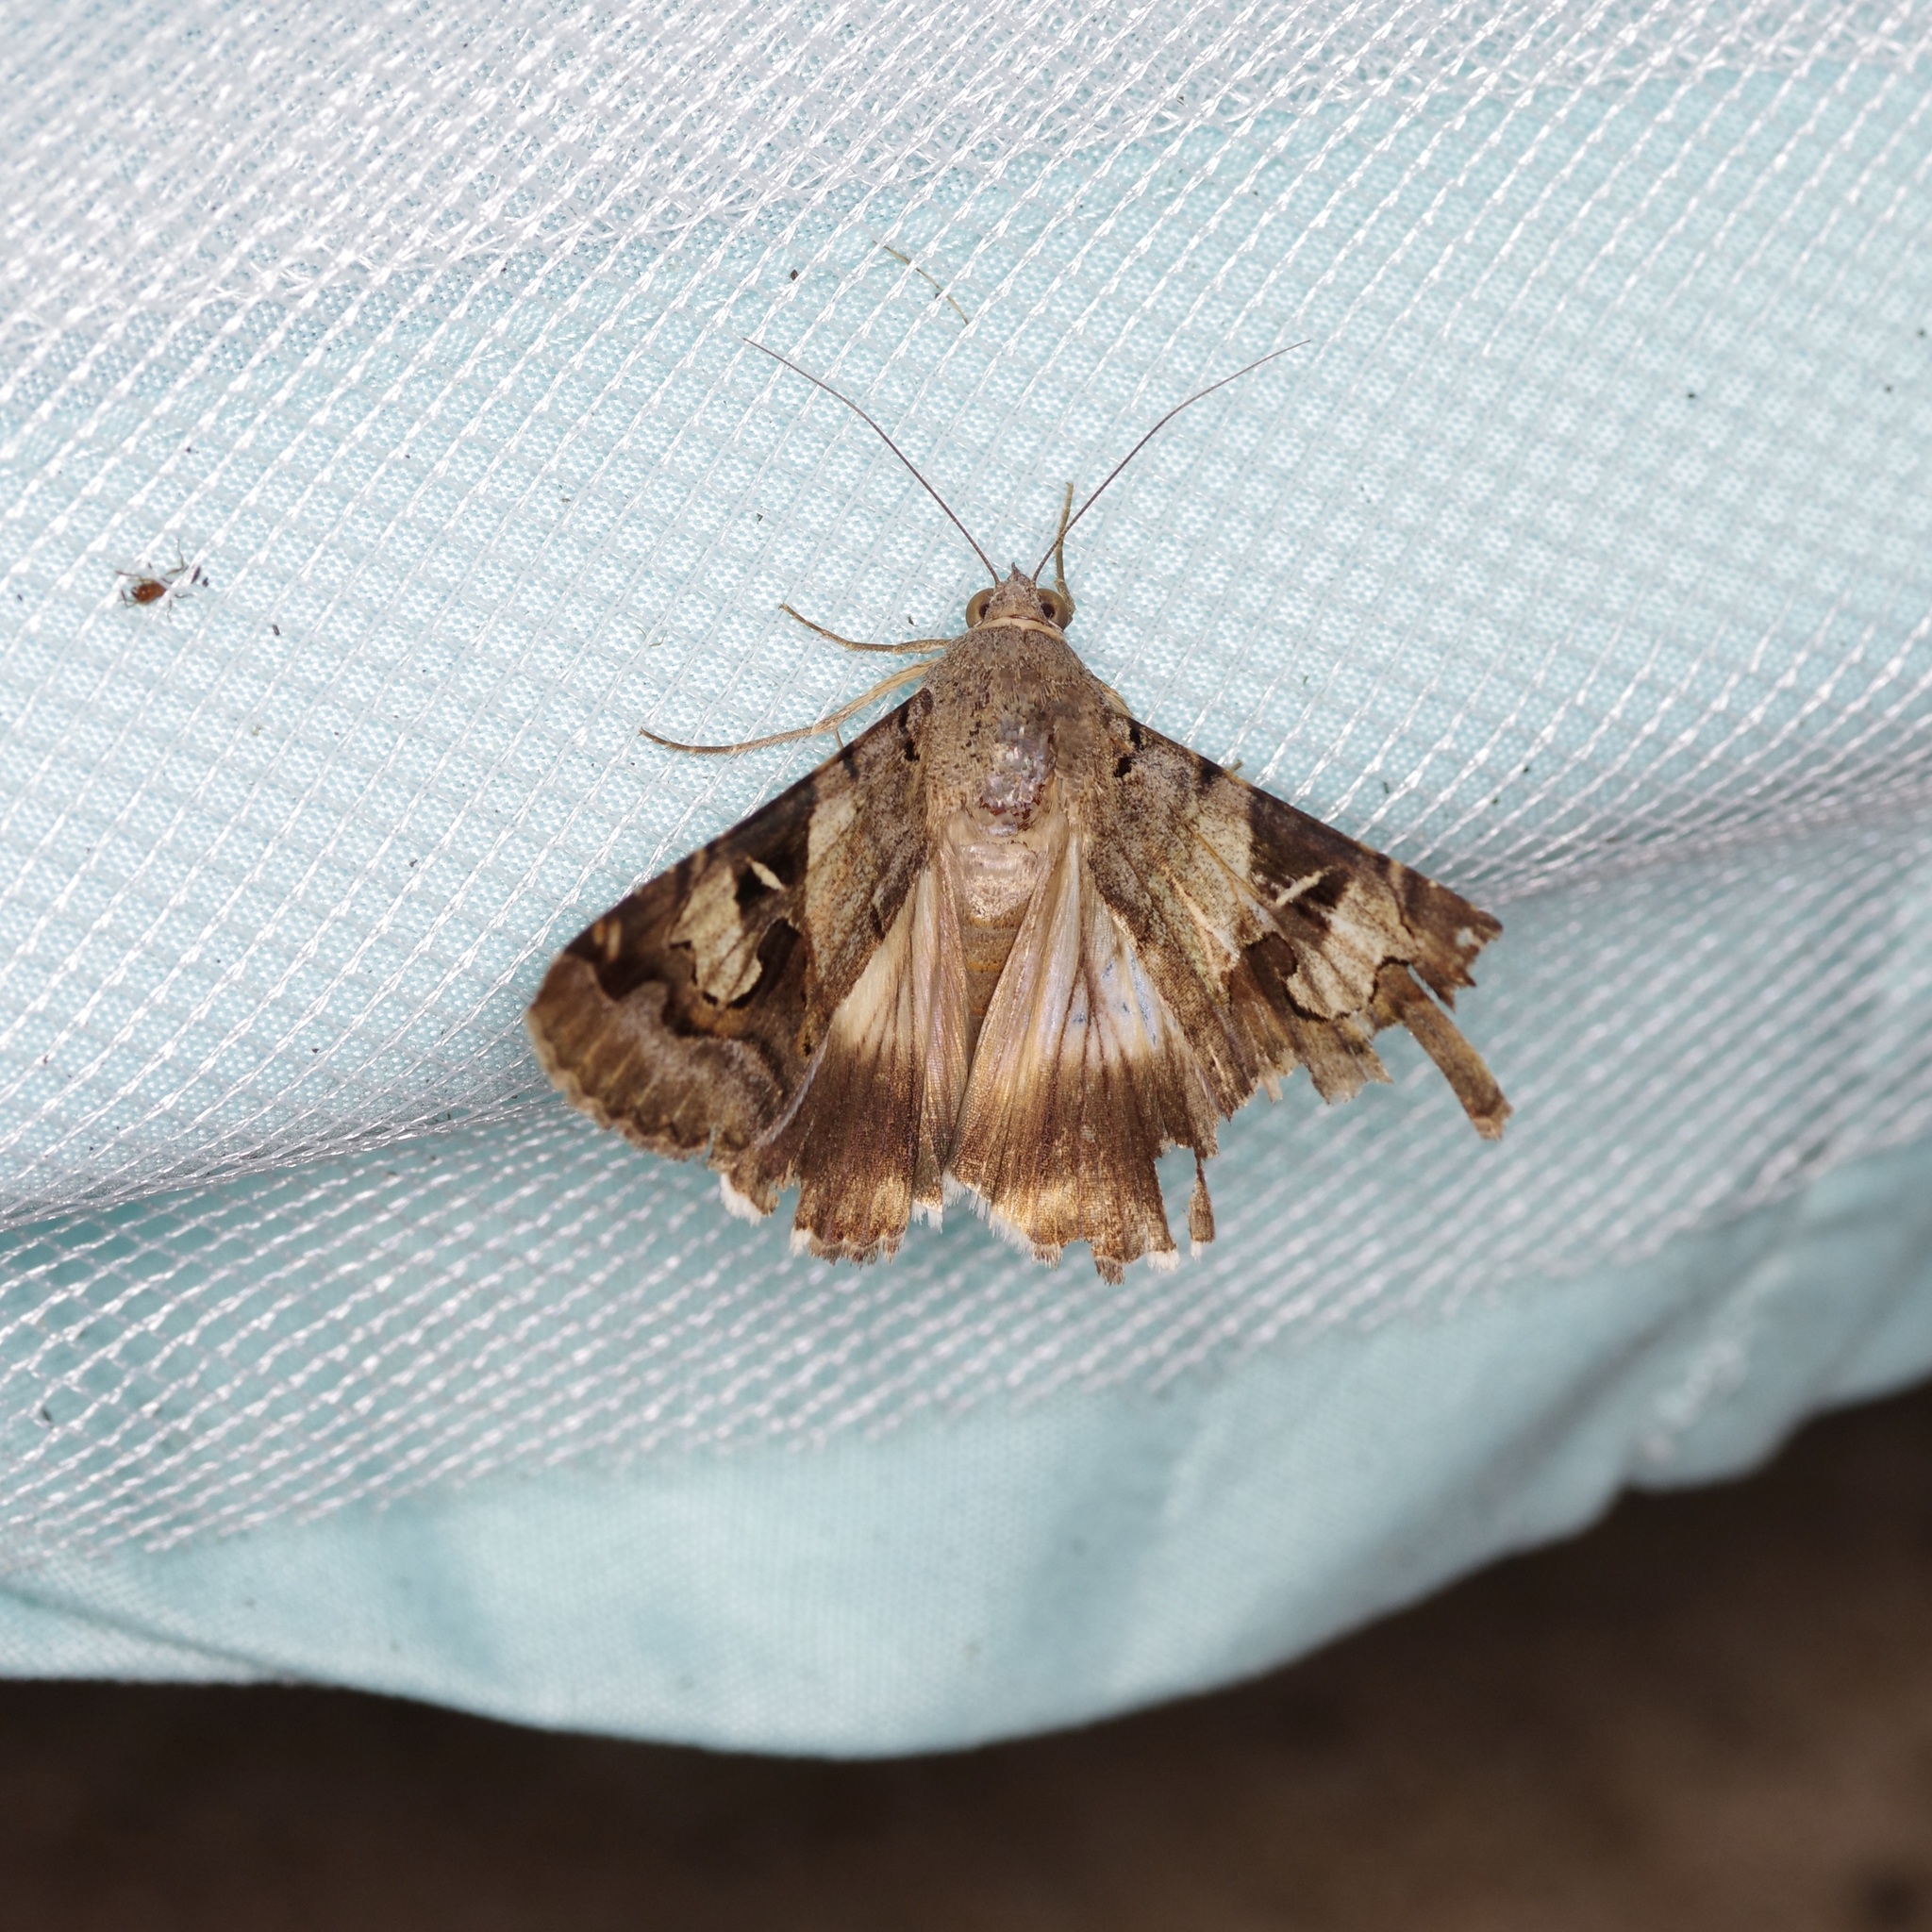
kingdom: Animalia
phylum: Arthropoda
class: Insecta
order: Lepidoptera
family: Erebidae
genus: Melipotis
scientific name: Melipotis indomita
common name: Moth
